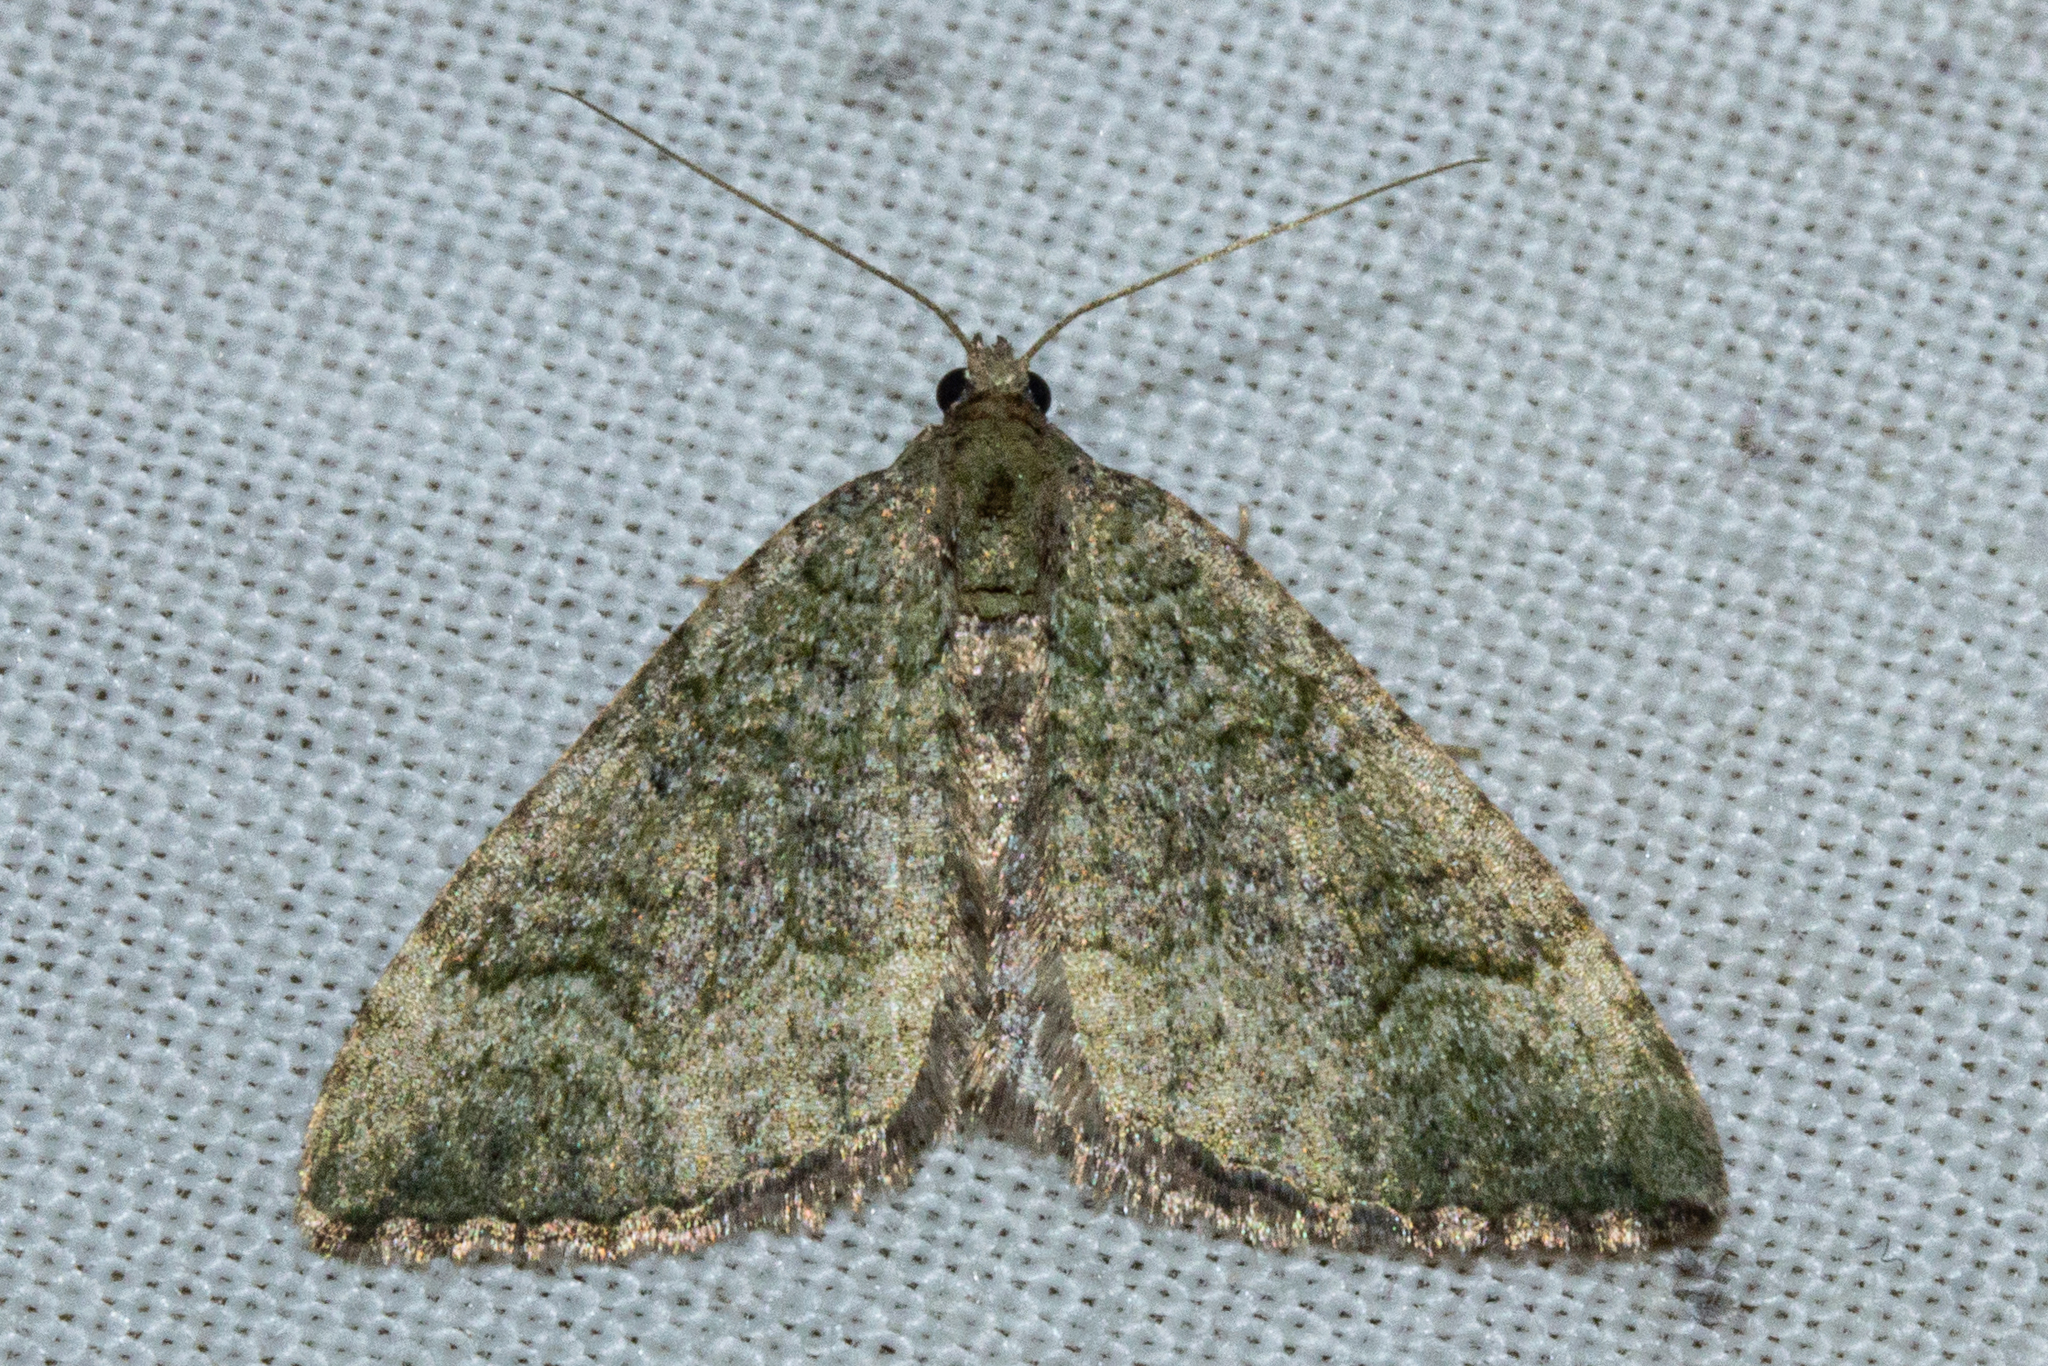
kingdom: Animalia
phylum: Arthropoda
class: Insecta
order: Lepidoptera
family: Geometridae
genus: Epyaxa
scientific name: Epyaxa rosearia
